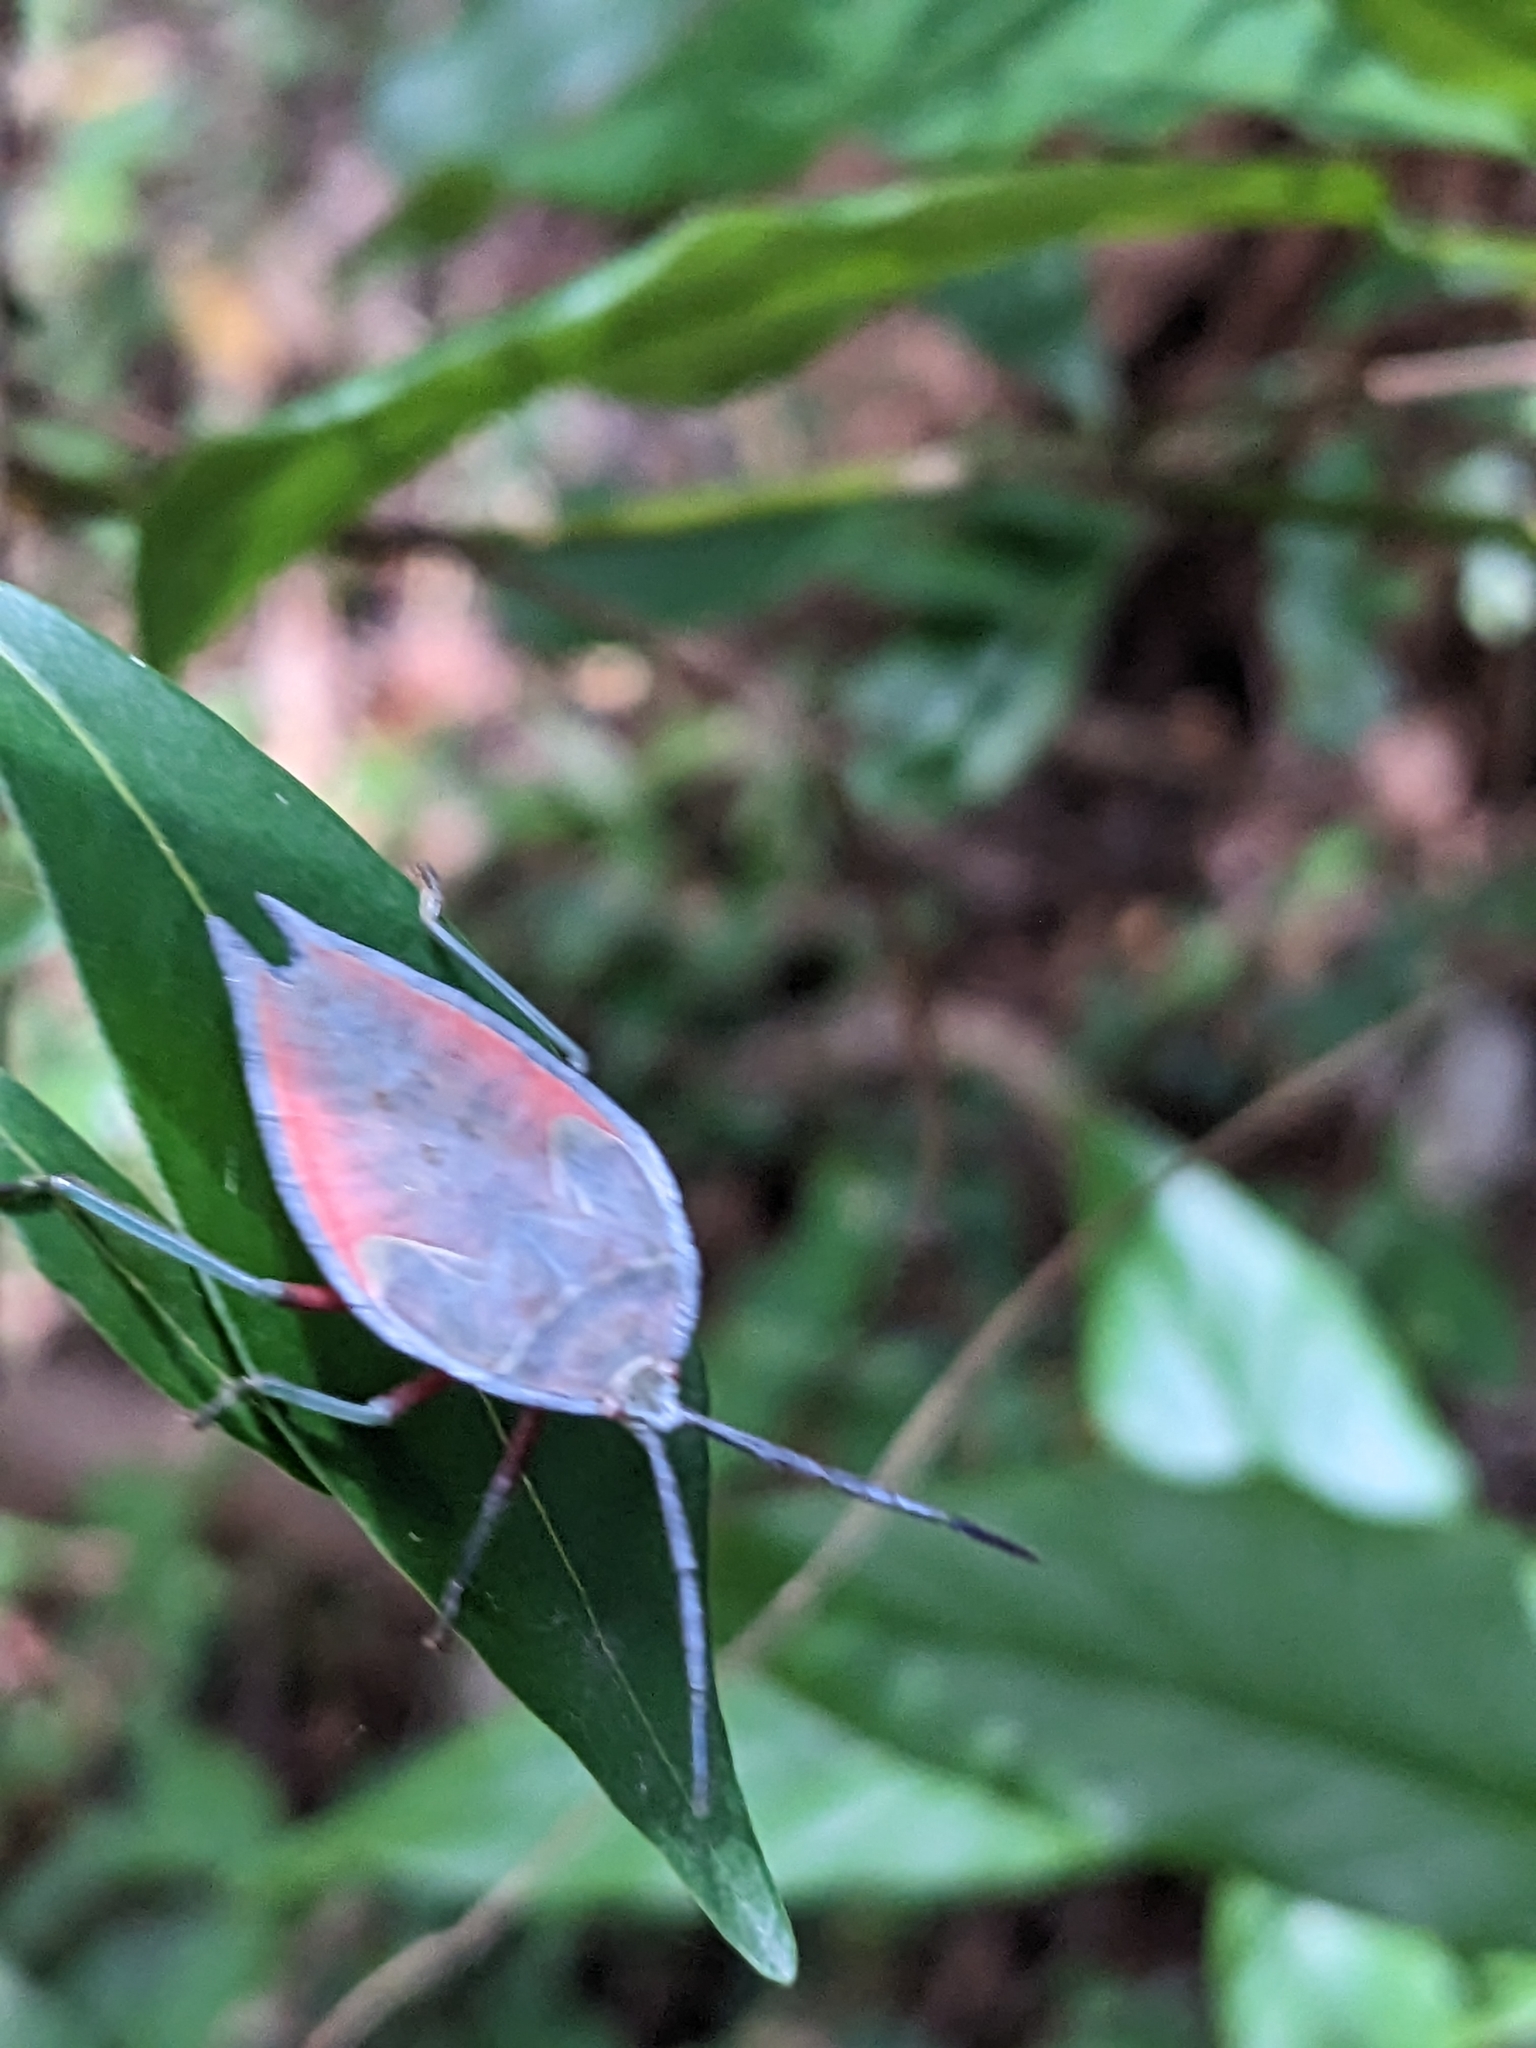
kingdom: Animalia
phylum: Arthropoda
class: Insecta
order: Hemiptera
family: Tessaratomidae
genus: Lyramorpha
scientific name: Lyramorpha rosea
